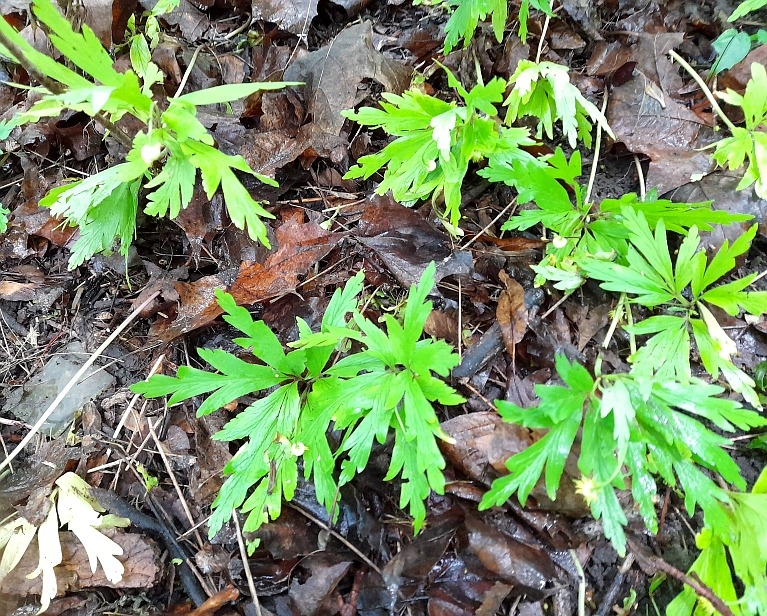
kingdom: Plantae
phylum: Tracheophyta
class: Magnoliopsida
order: Ranunculales
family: Ranunculaceae
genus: Anemone
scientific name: Anemone ranunculoides
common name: Yellow anemone
